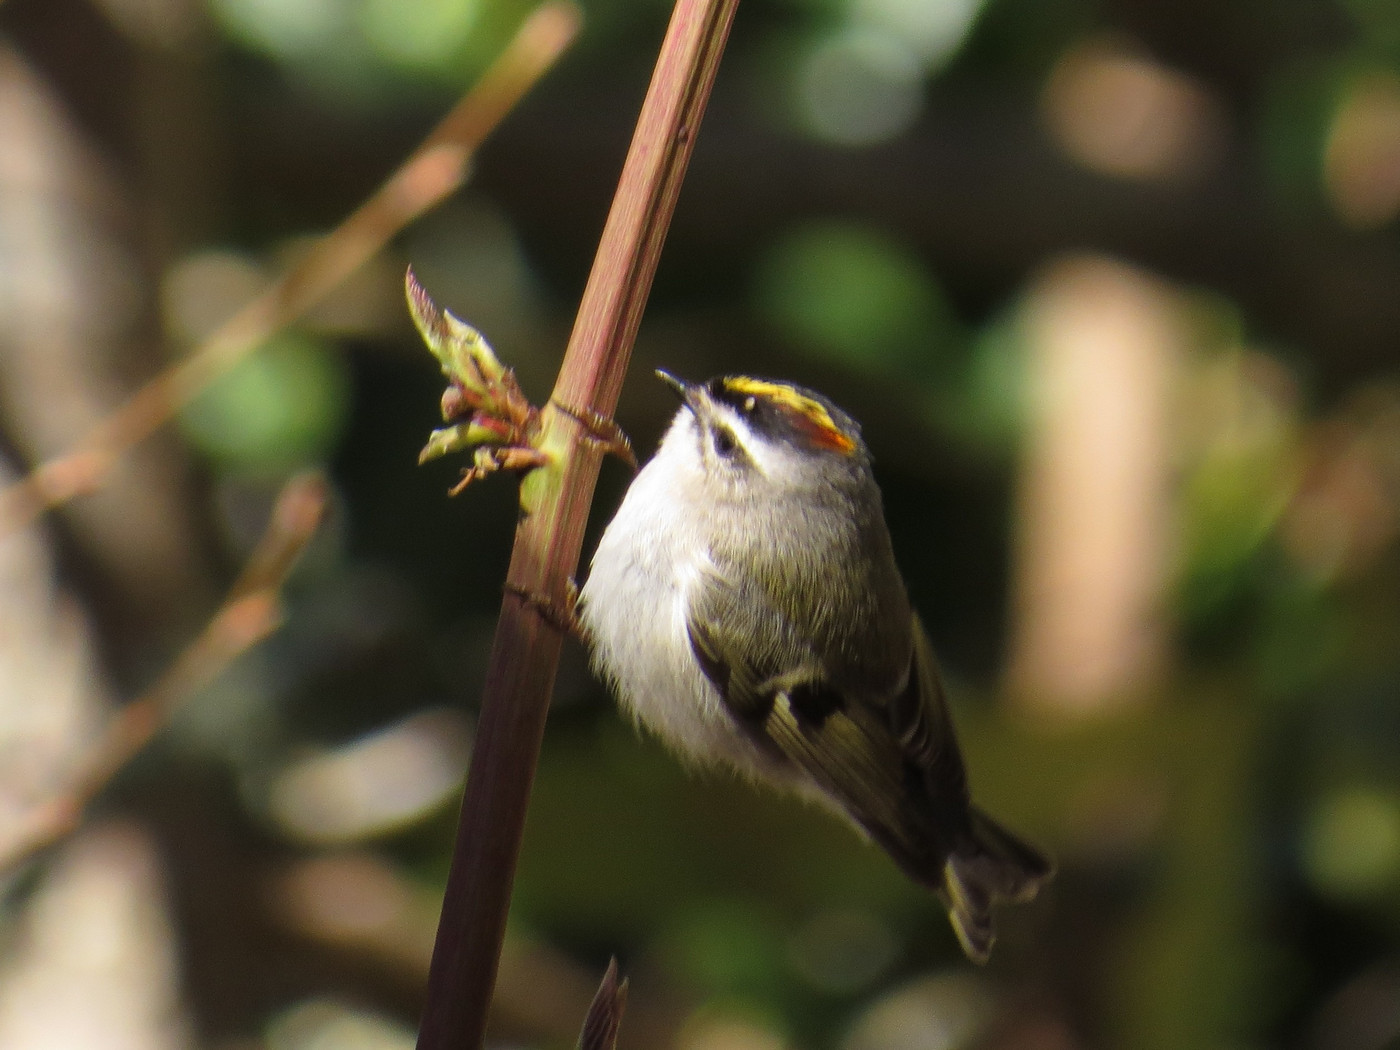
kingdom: Animalia
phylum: Chordata
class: Aves
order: Passeriformes
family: Regulidae
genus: Regulus
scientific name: Regulus satrapa
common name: Golden-crowned kinglet
